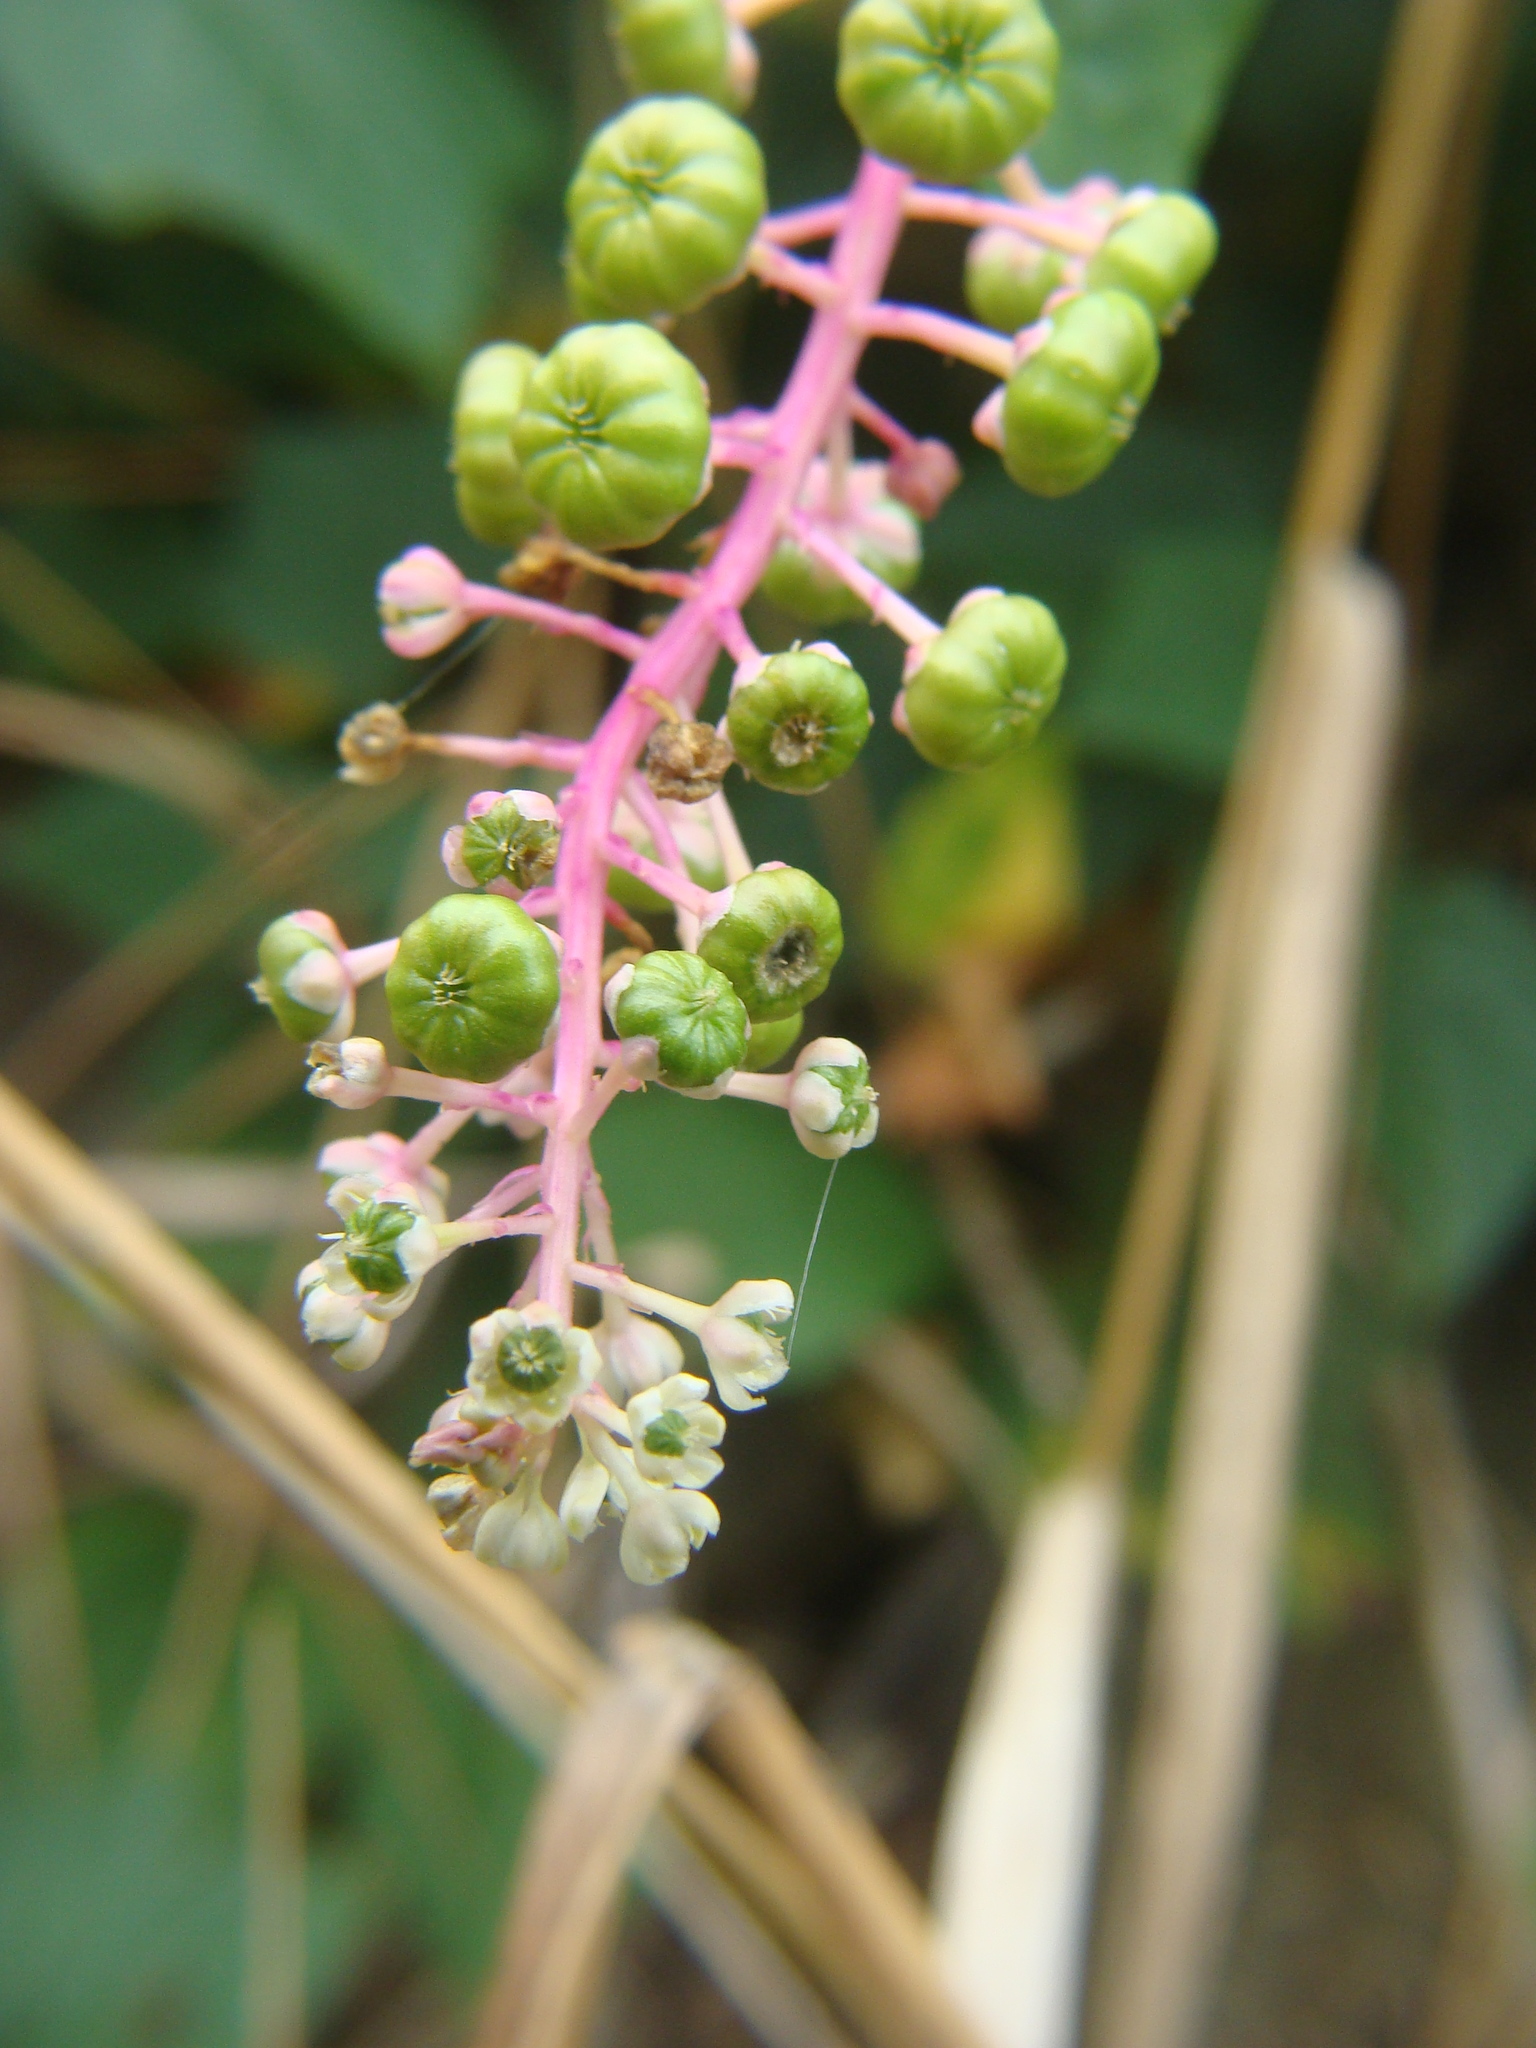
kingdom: Plantae
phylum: Tracheophyta
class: Magnoliopsida
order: Caryophyllales
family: Phytolaccaceae
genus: Phytolacca
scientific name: Phytolacca americana
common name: American pokeweed
